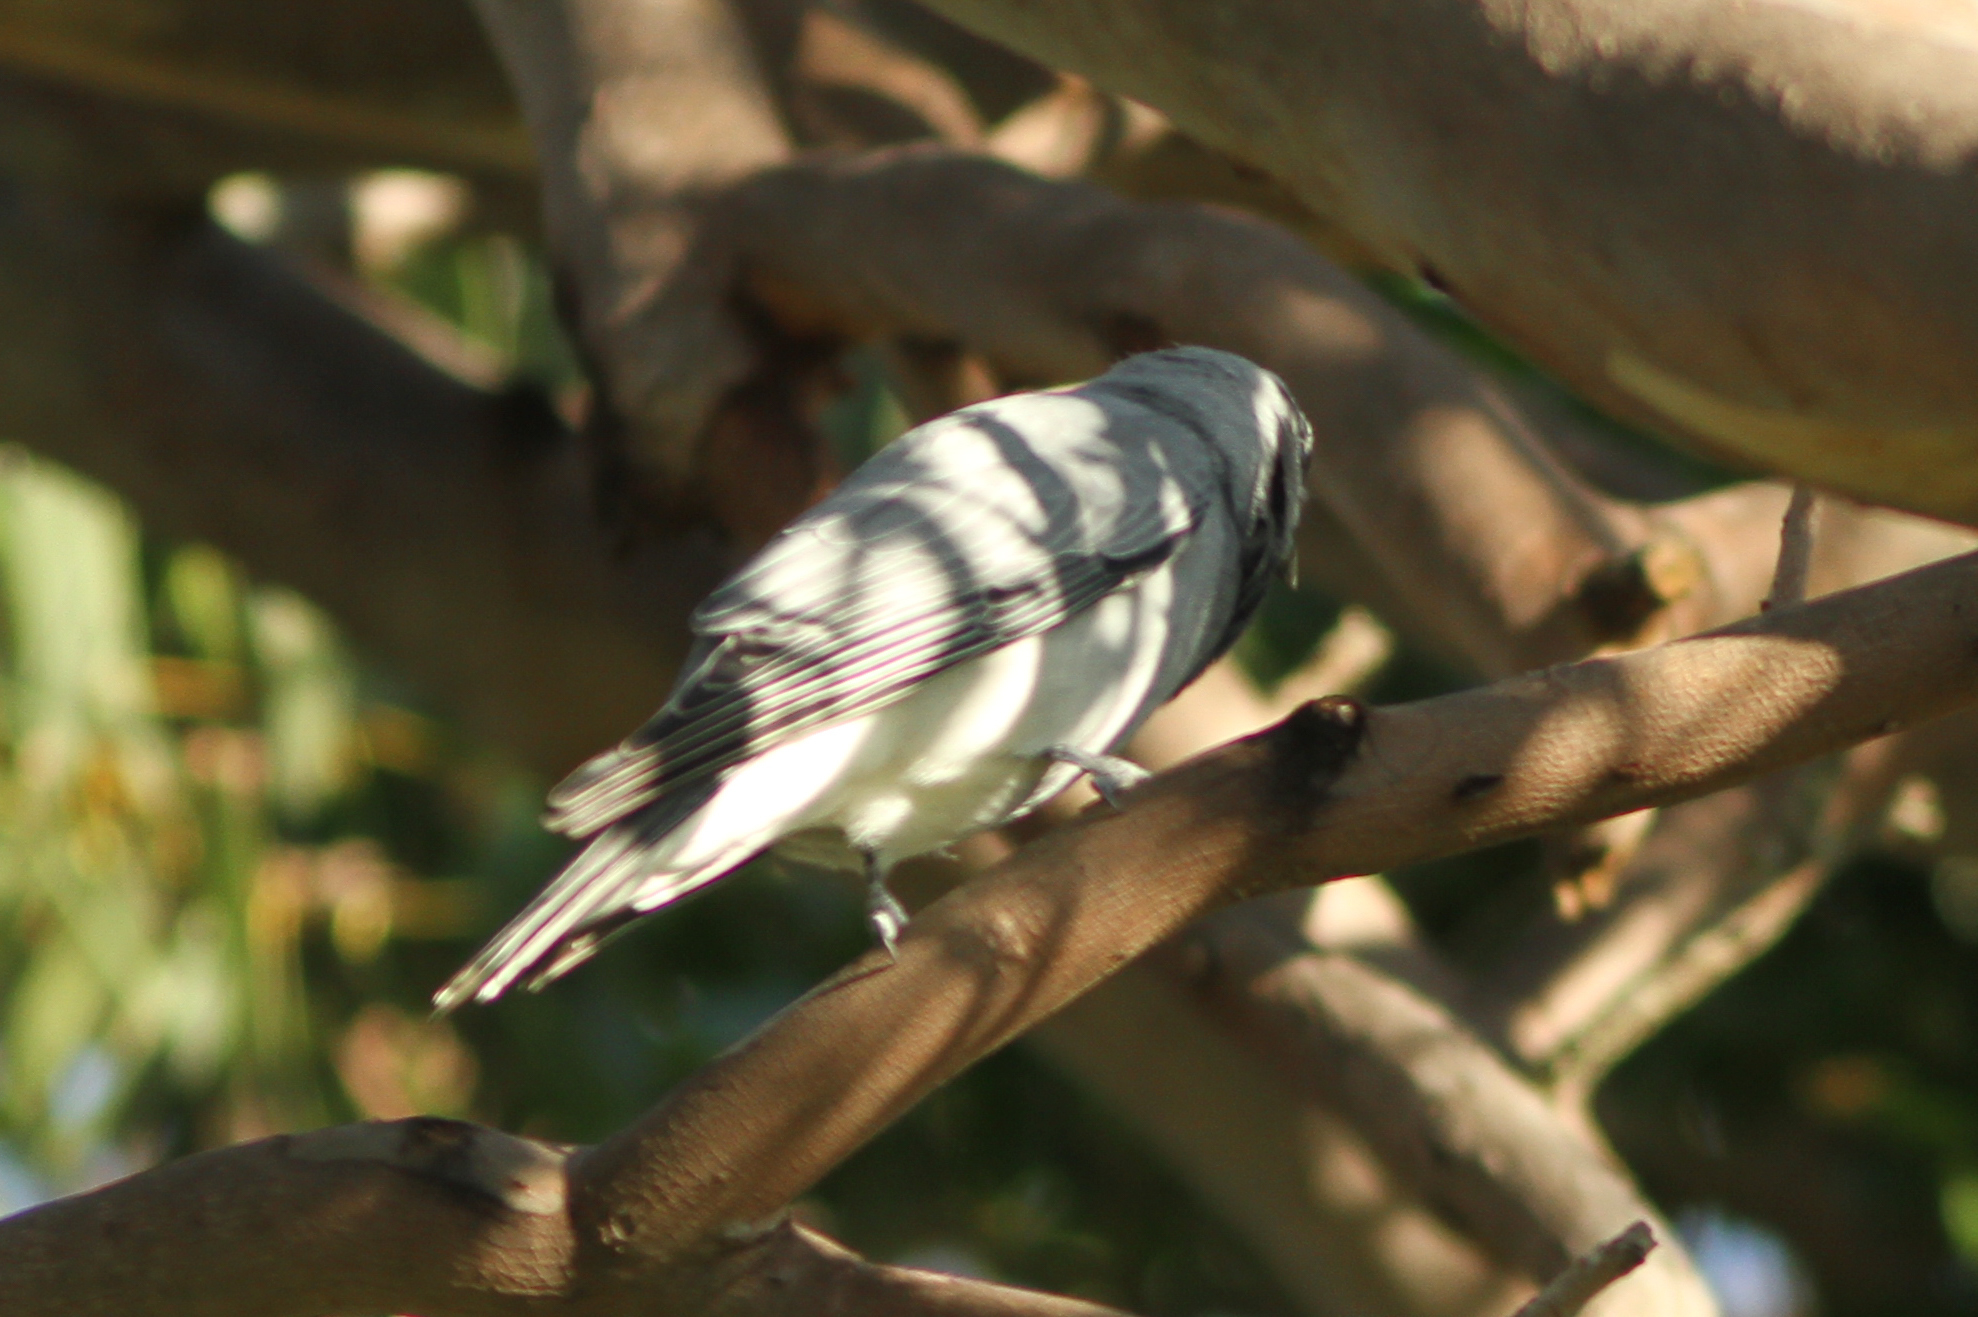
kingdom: Animalia
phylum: Chordata
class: Aves
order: Passeriformes
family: Campephagidae
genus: Coracina
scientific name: Coracina novaehollandiae
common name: Black-faced cuckooshrike
